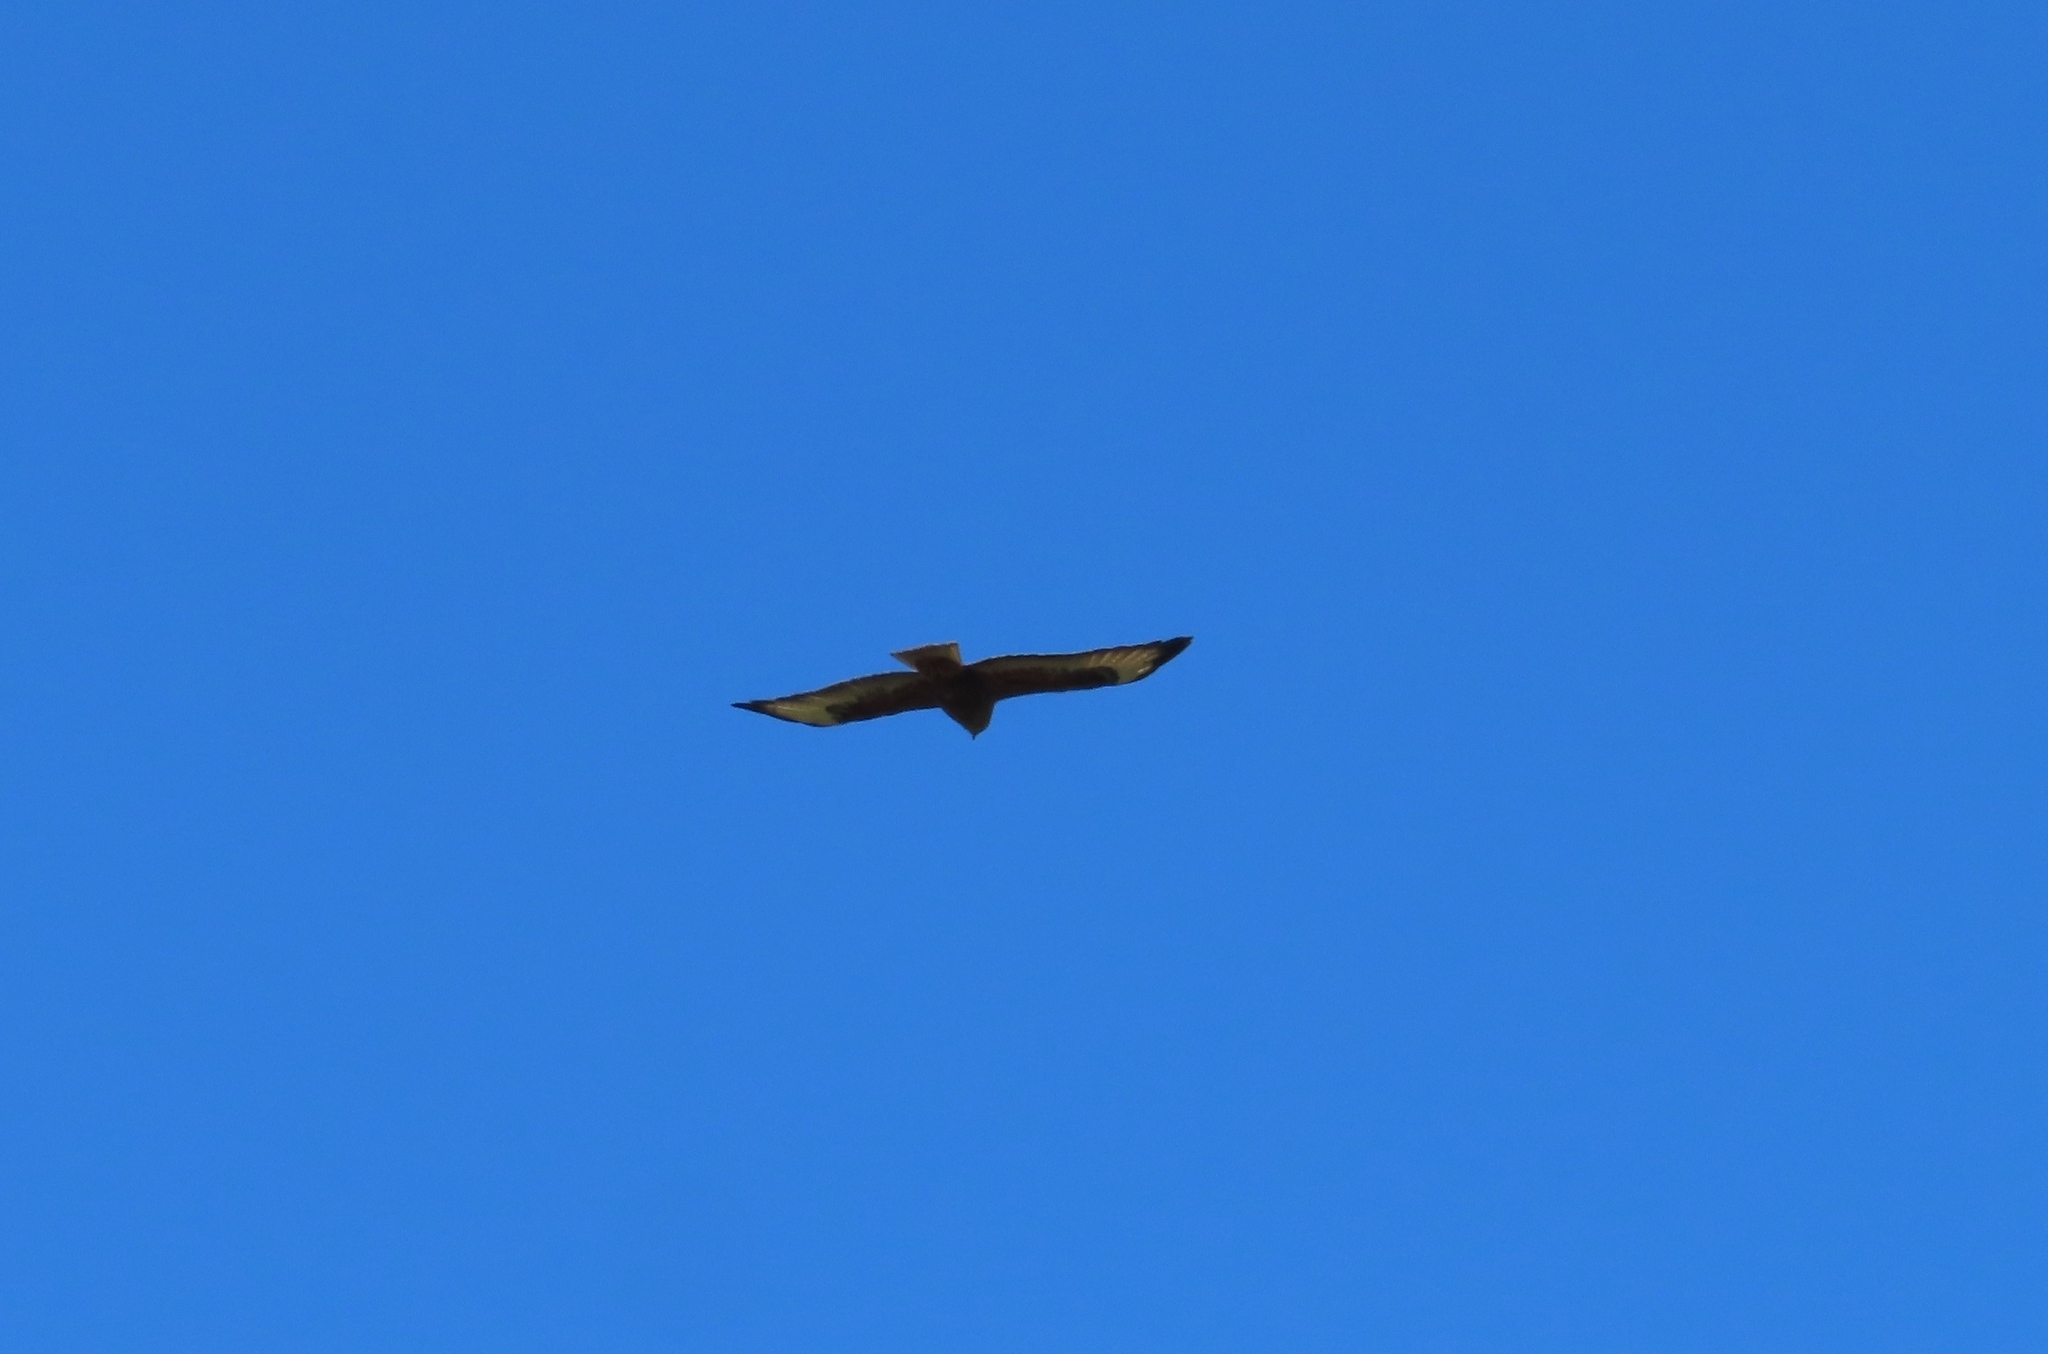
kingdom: Animalia
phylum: Chordata
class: Aves
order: Accipitriformes
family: Accipitridae
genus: Buteo
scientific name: Buteo buteo
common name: Common buzzard
